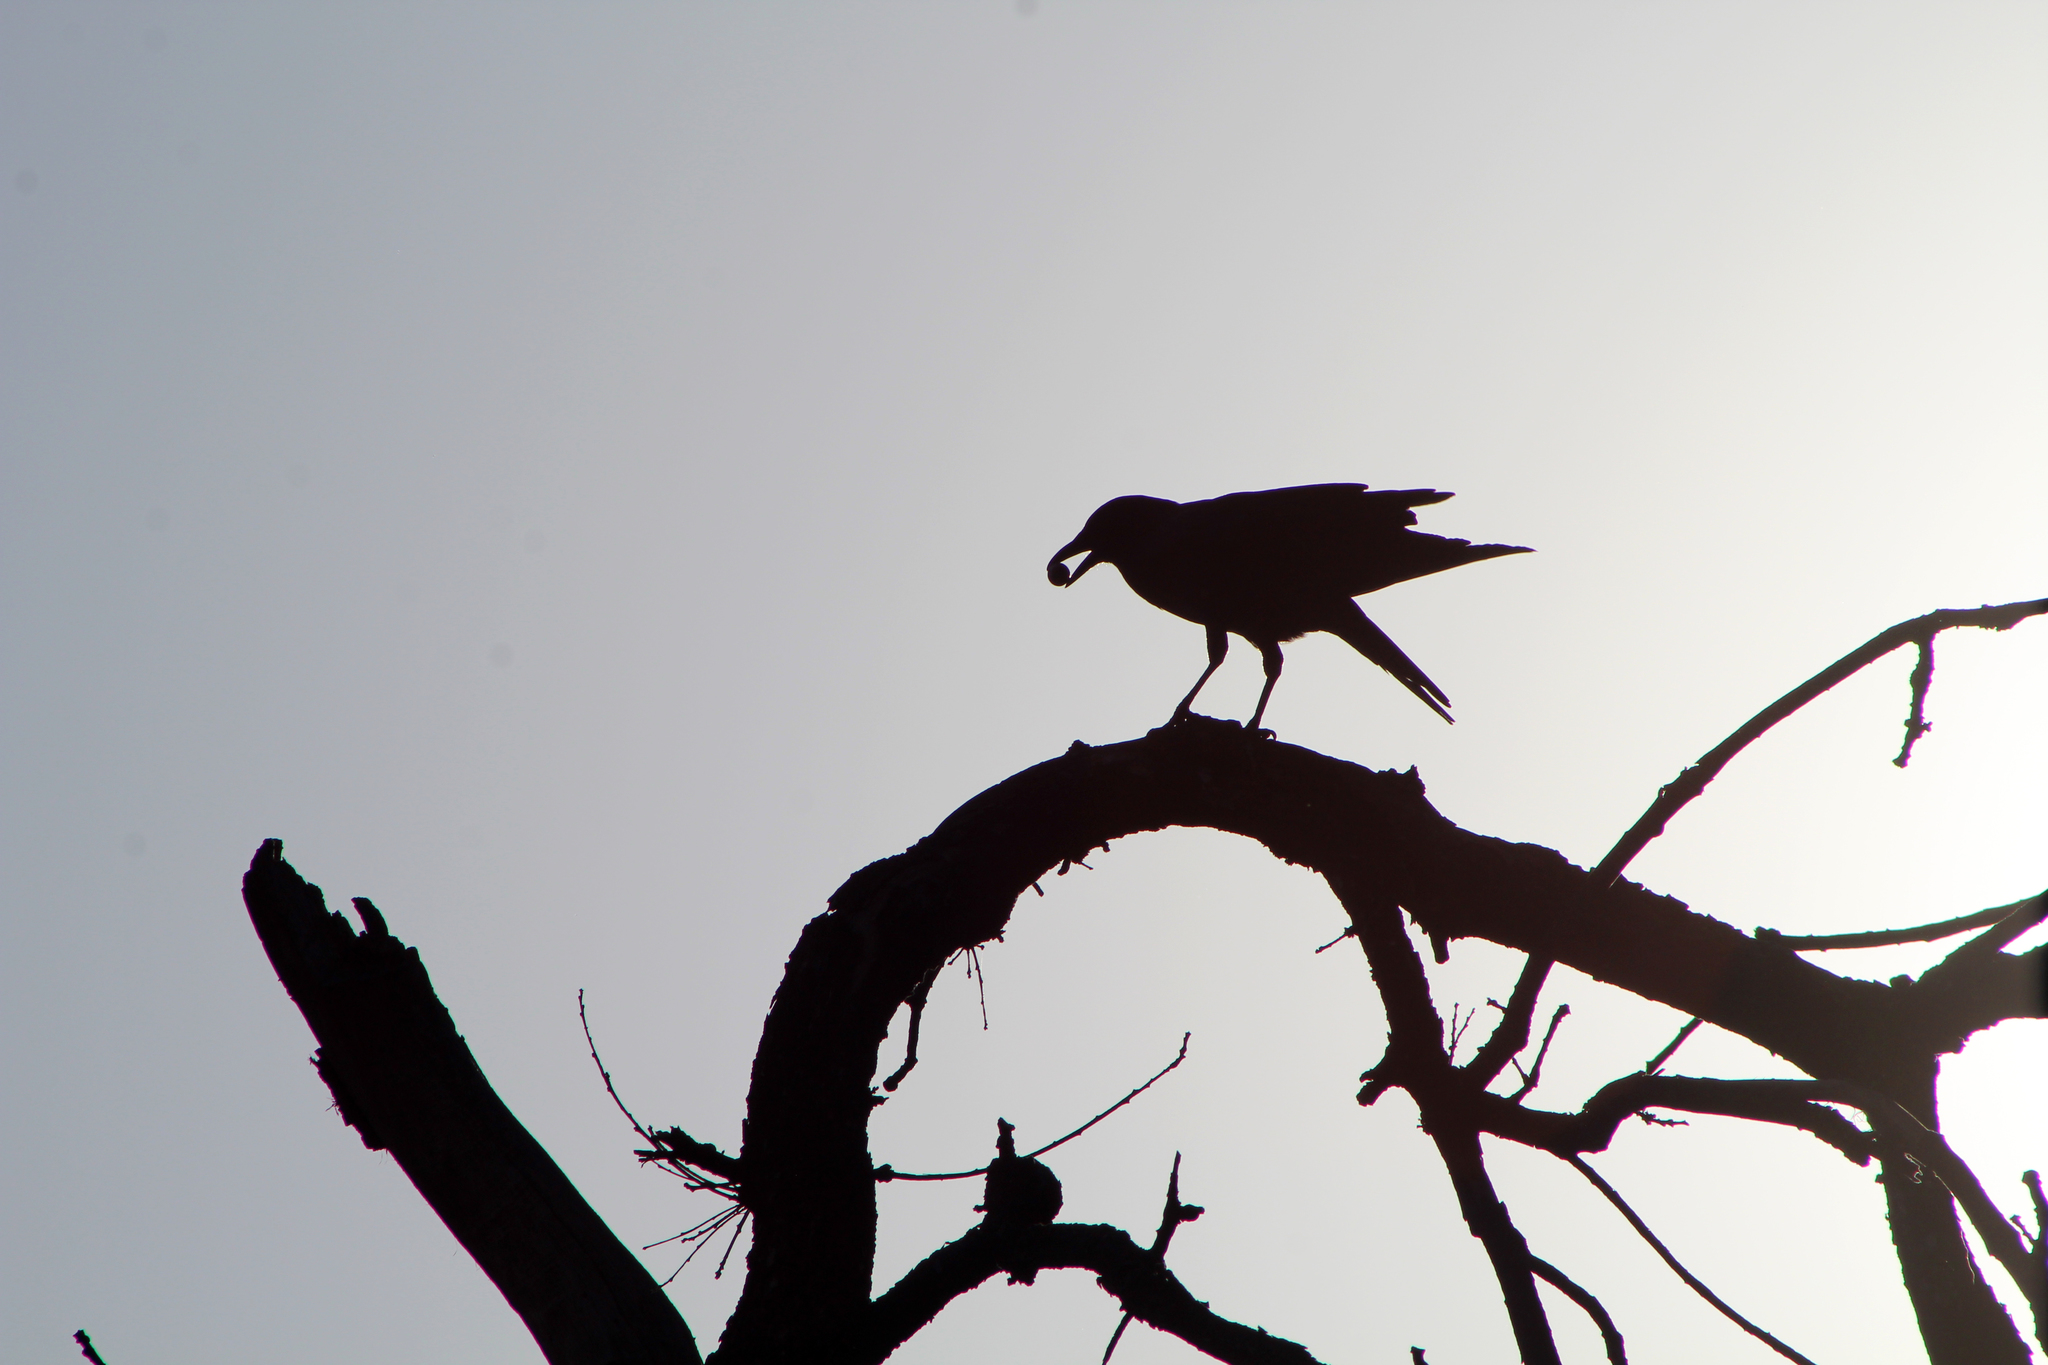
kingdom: Animalia
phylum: Chordata
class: Aves
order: Passeriformes
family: Corvidae
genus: Corvus
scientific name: Corvus brachyrhynchos
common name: American crow
